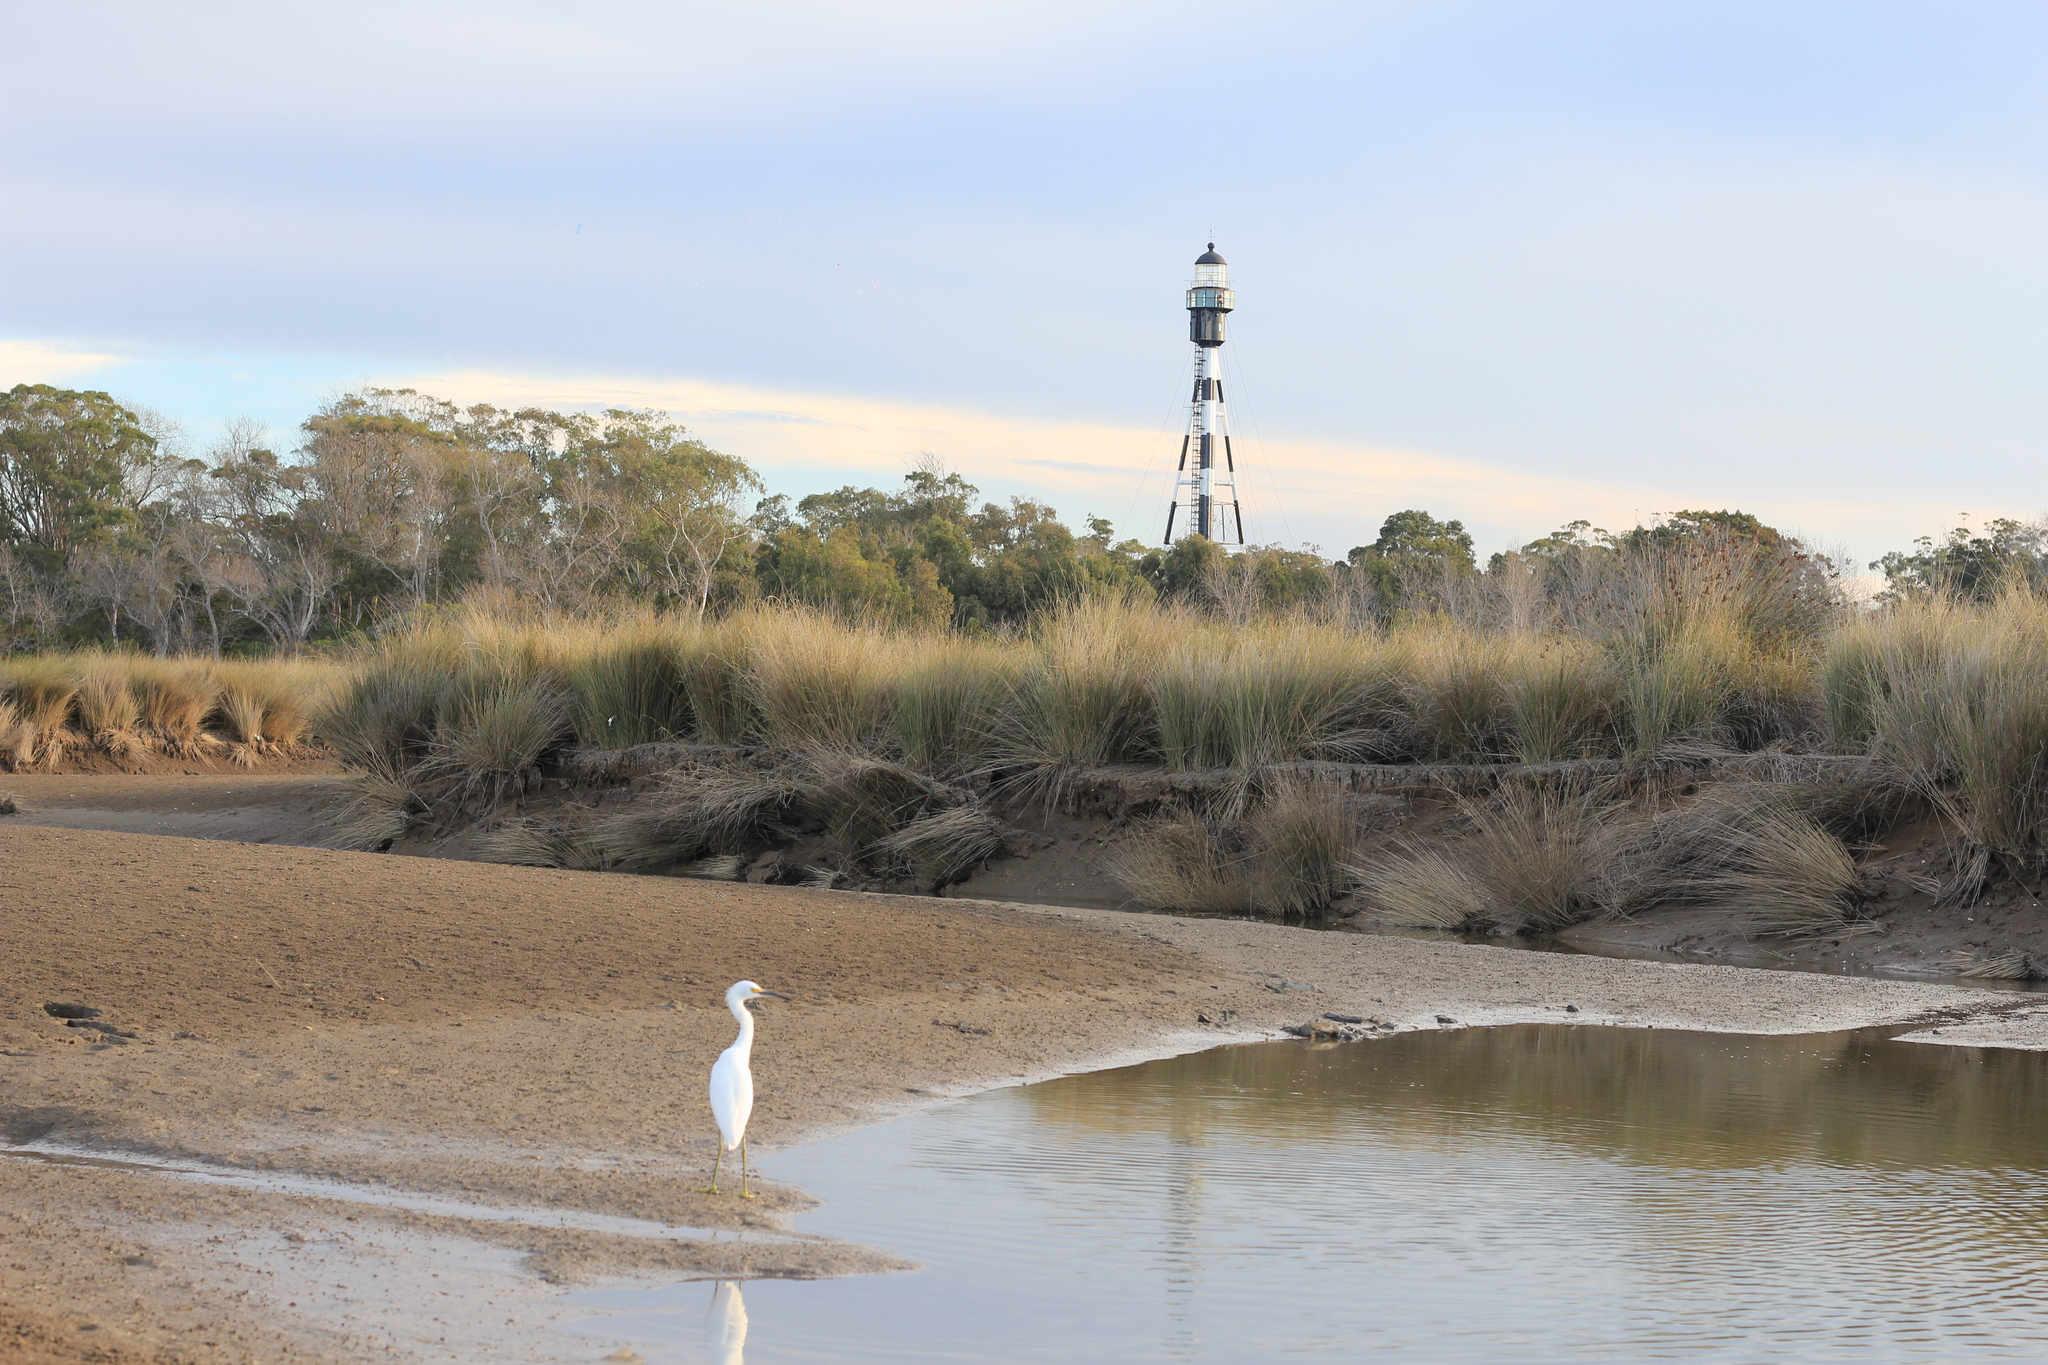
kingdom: Animalia
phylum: Chordata
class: Aves
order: Pelecaniformes
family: Ardeidae
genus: Egretta
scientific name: Egretta thula
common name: Snowy egret
